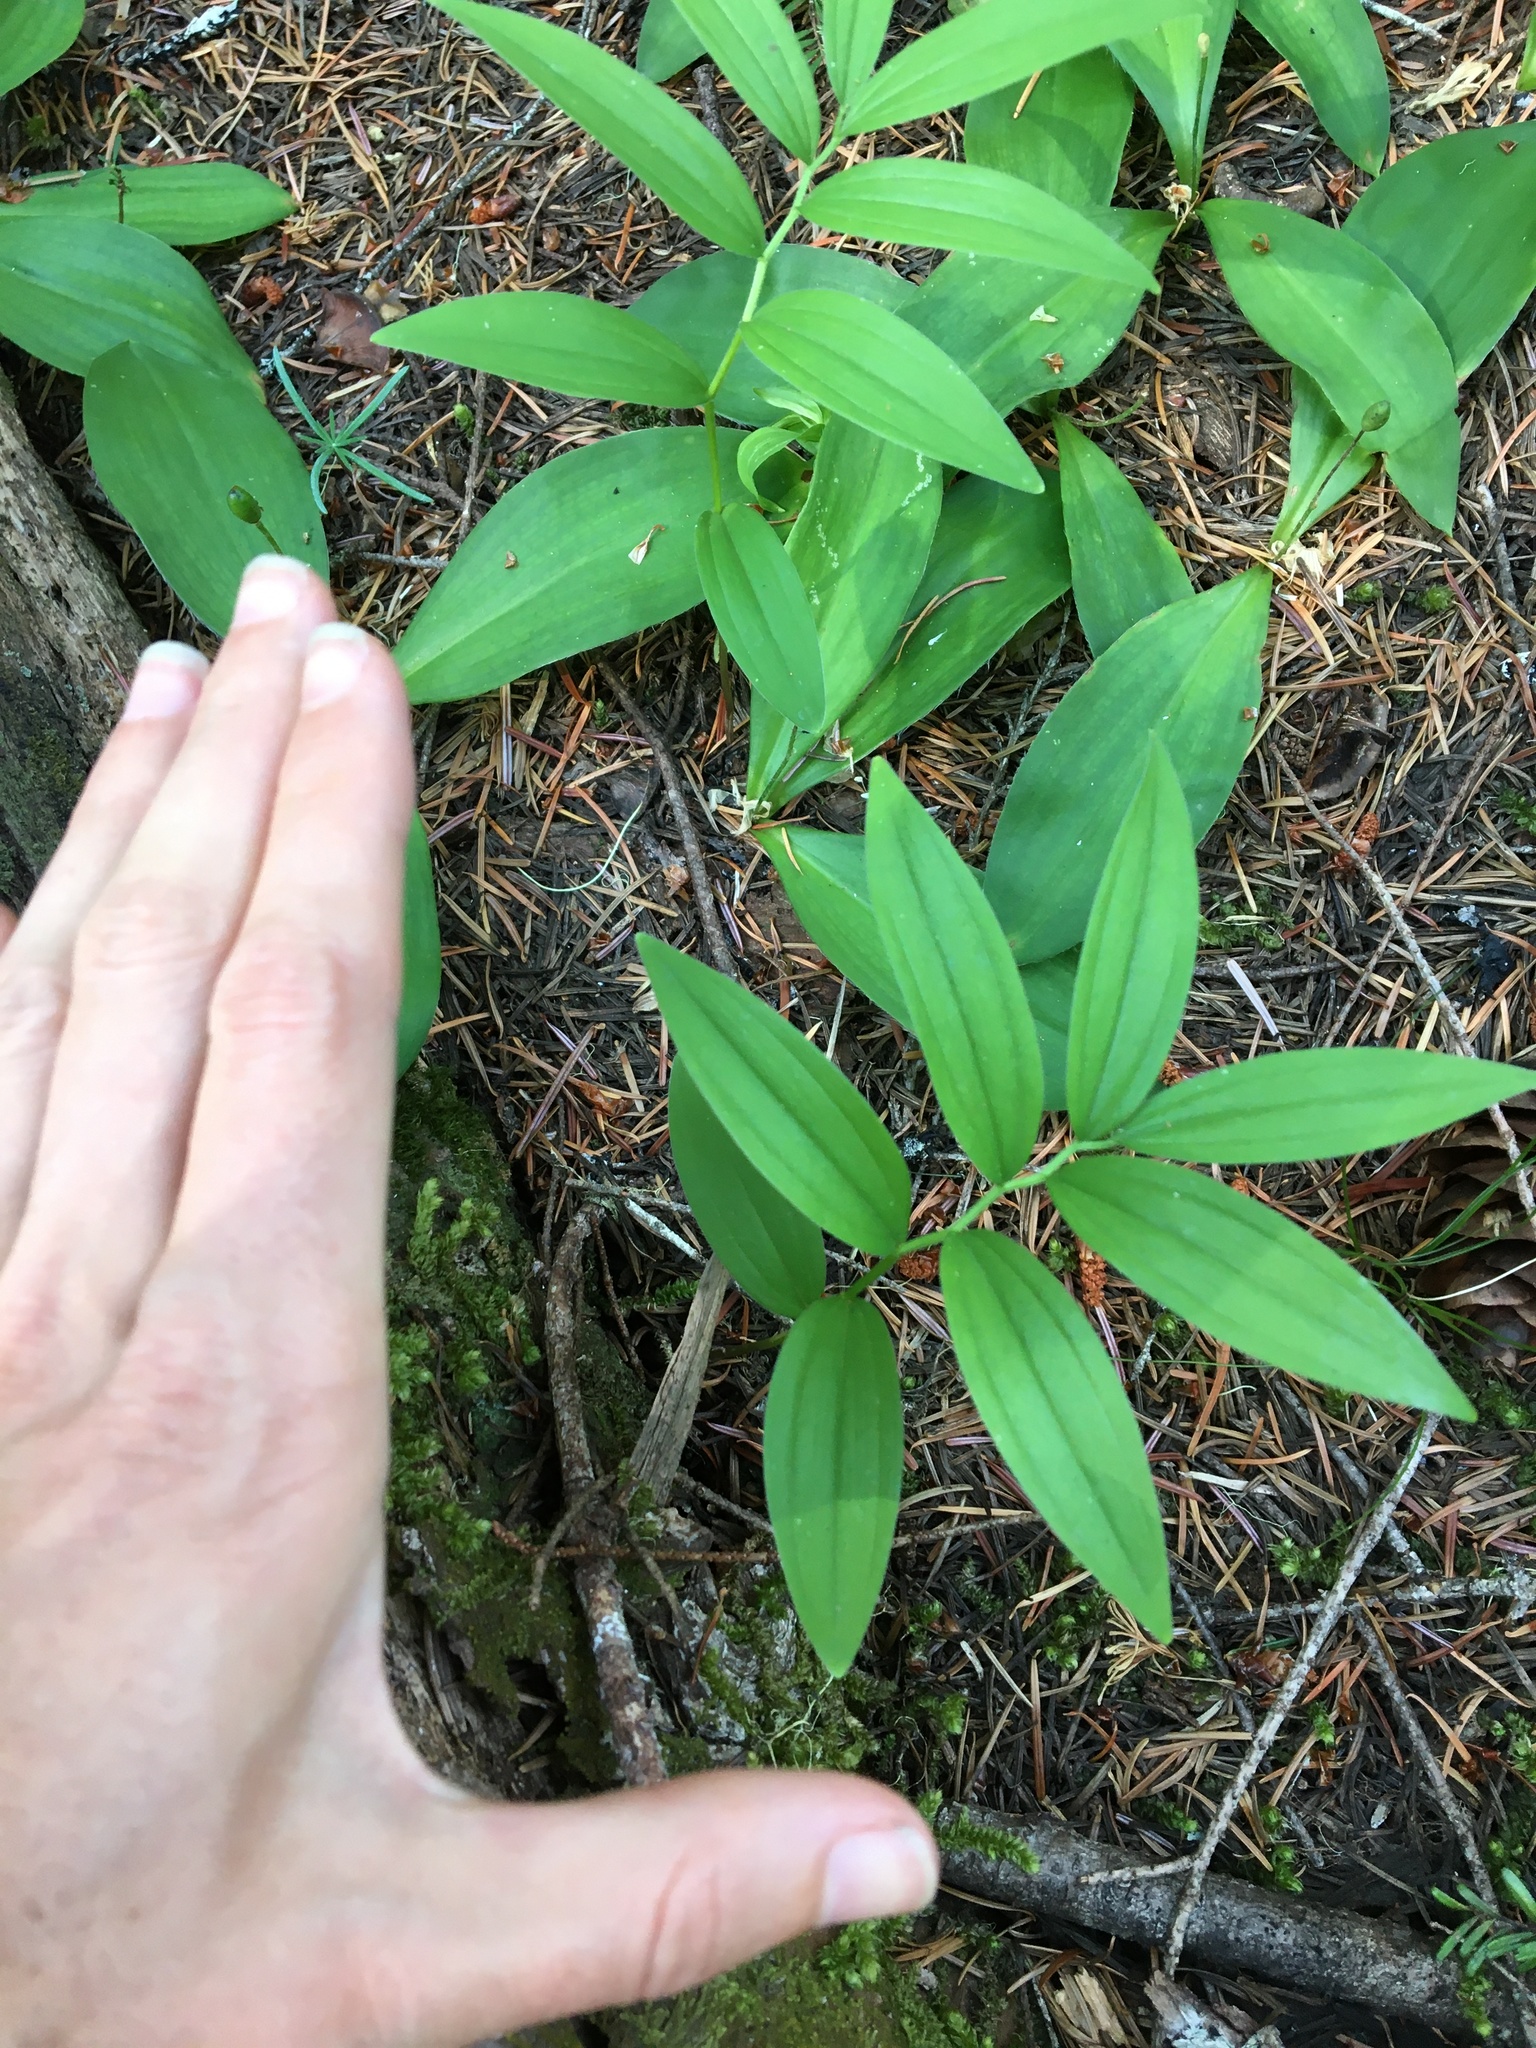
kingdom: Plantae
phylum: Tracheophyta
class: Liliopsida
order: Asparagales
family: Asparagaceae
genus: Maianthemum
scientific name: Maianthemum stellatum
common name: Little false solomon's seal
